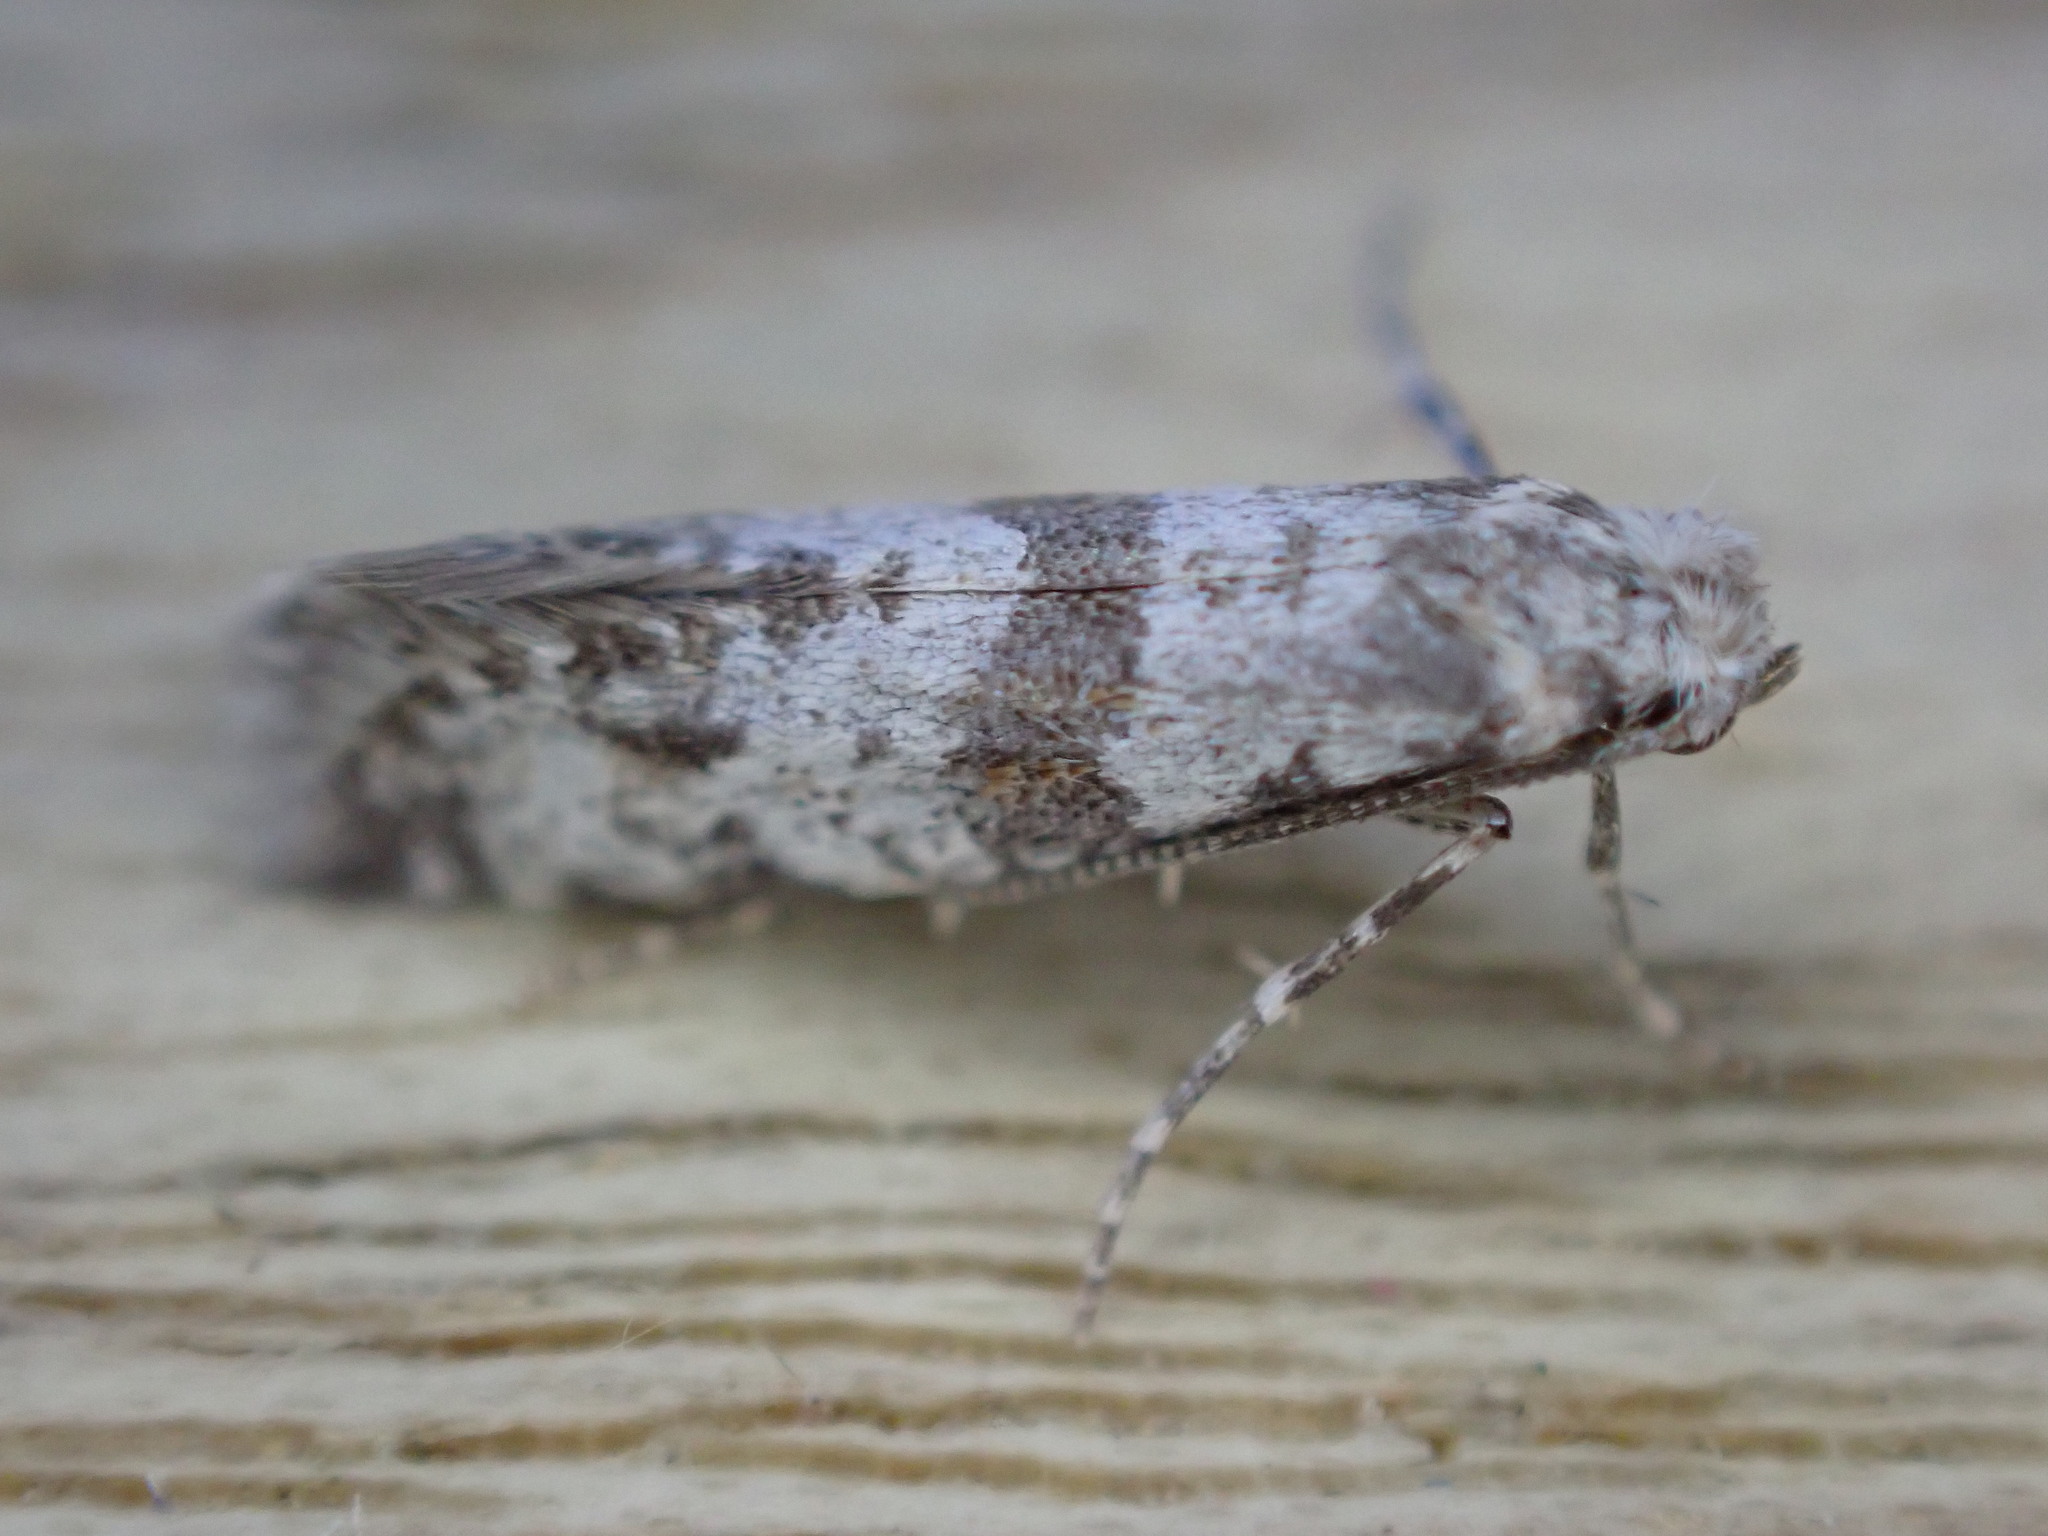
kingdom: Animalia
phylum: Arthropoda
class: Insecta
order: Lepidoptera
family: Yponomeutidae
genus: Scythropia
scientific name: Scythropia crataegella
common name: Hawthorn moth
